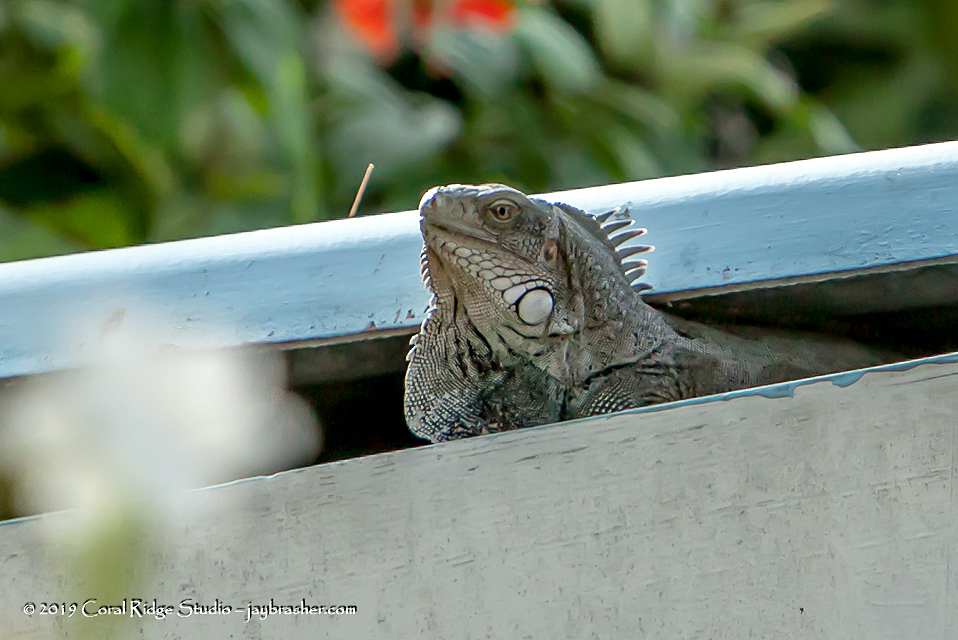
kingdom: Animalia
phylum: Chordata
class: Squamata
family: Iguanidae
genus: Iguana
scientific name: Iguana iguana
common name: Green iguana
